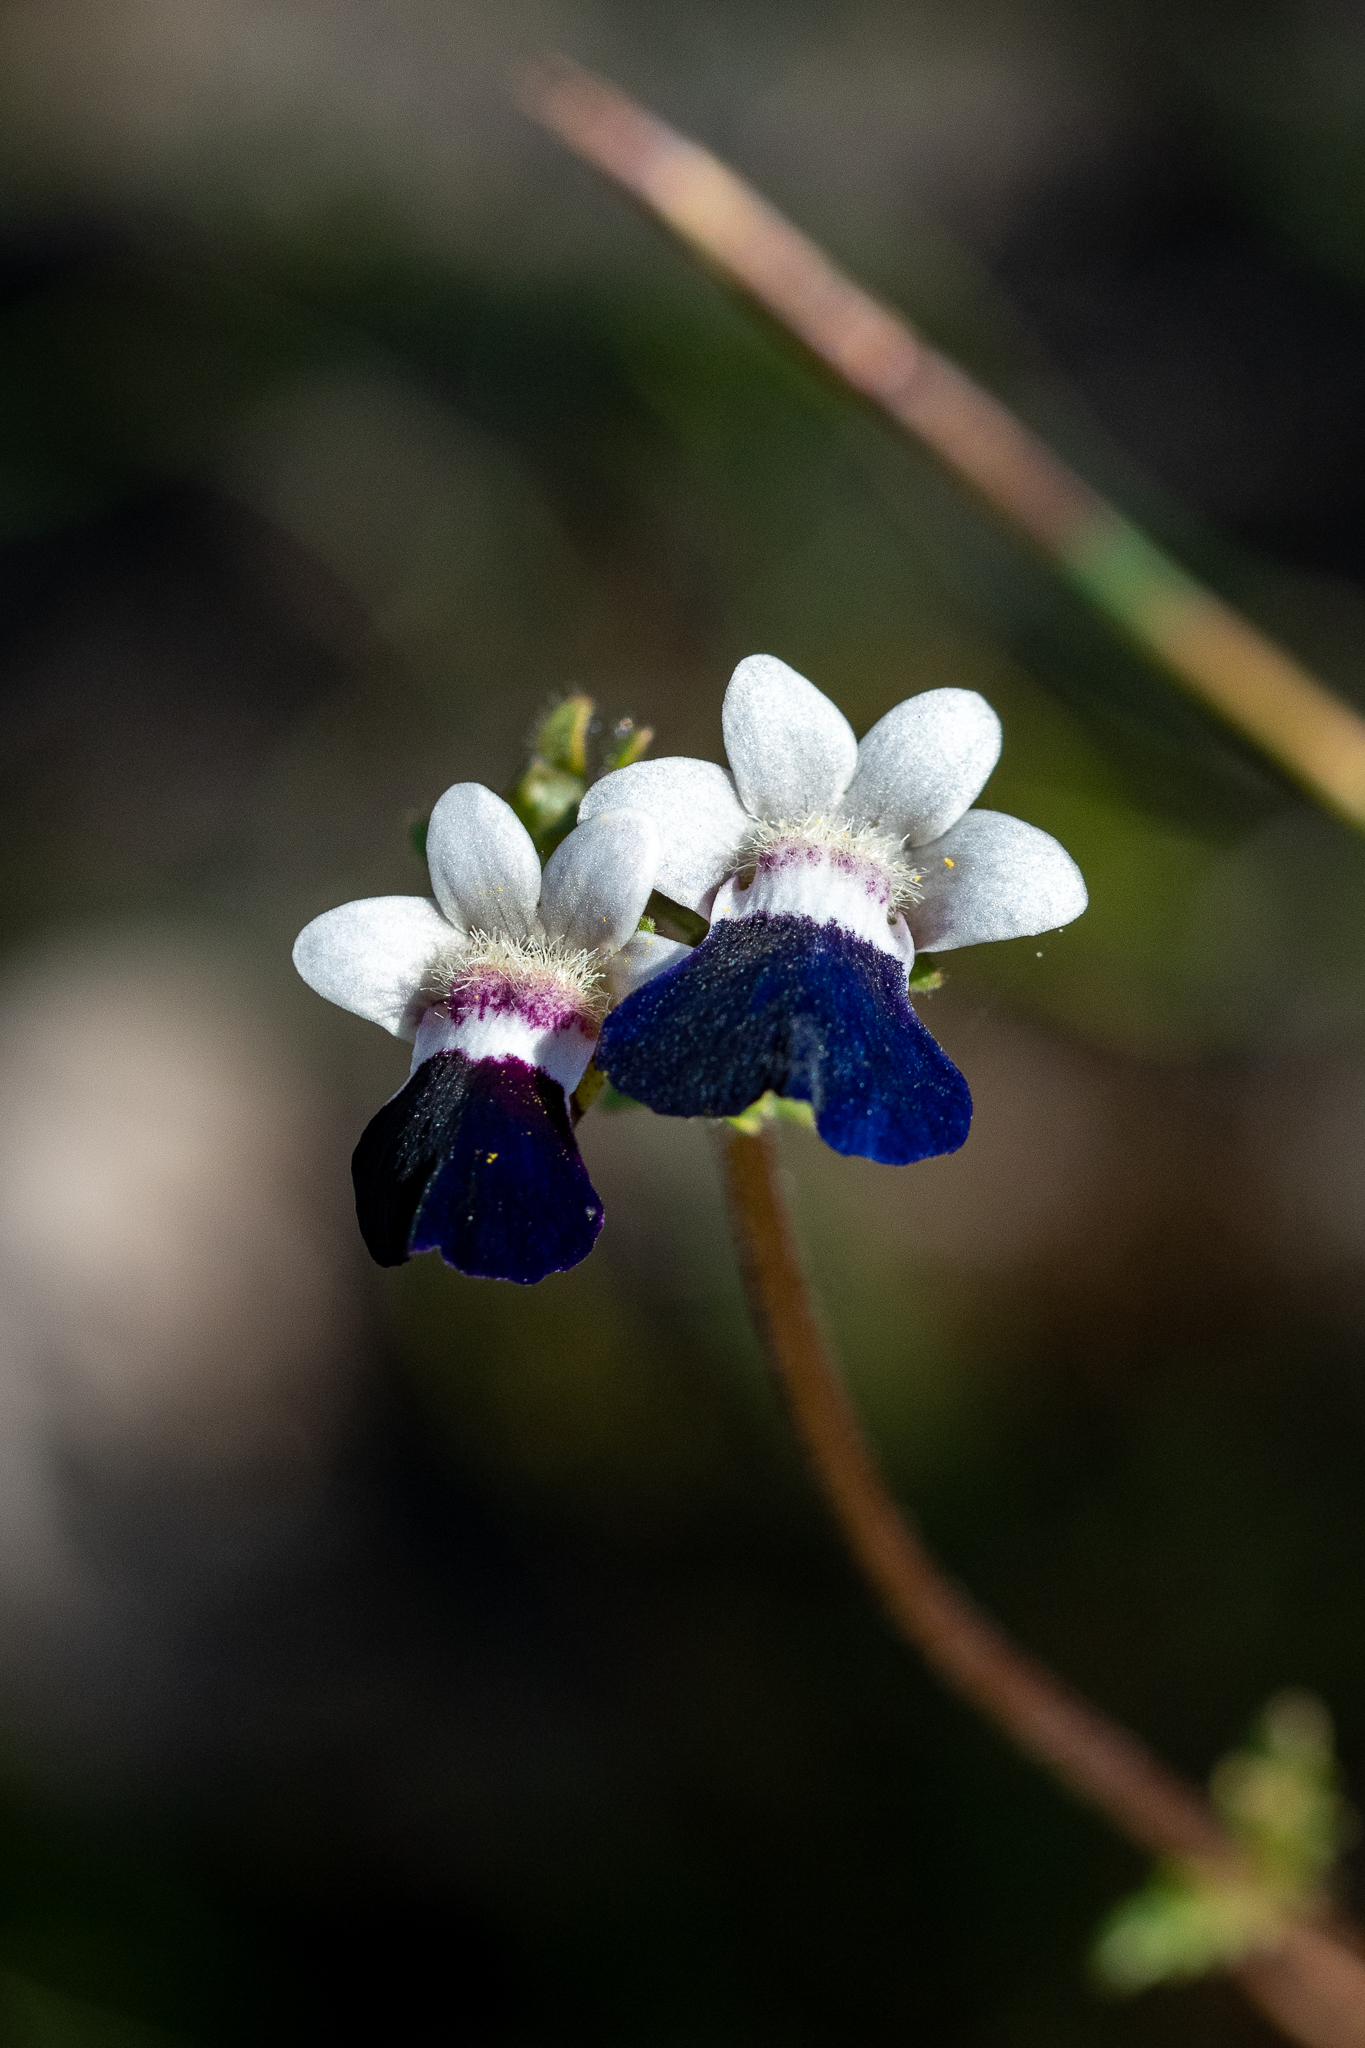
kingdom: Plantae
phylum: Tracheophyta
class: Magnoliopsida
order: Lamiales
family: Scrophulariaceae
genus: Nemesia
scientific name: Nemesia barbata
